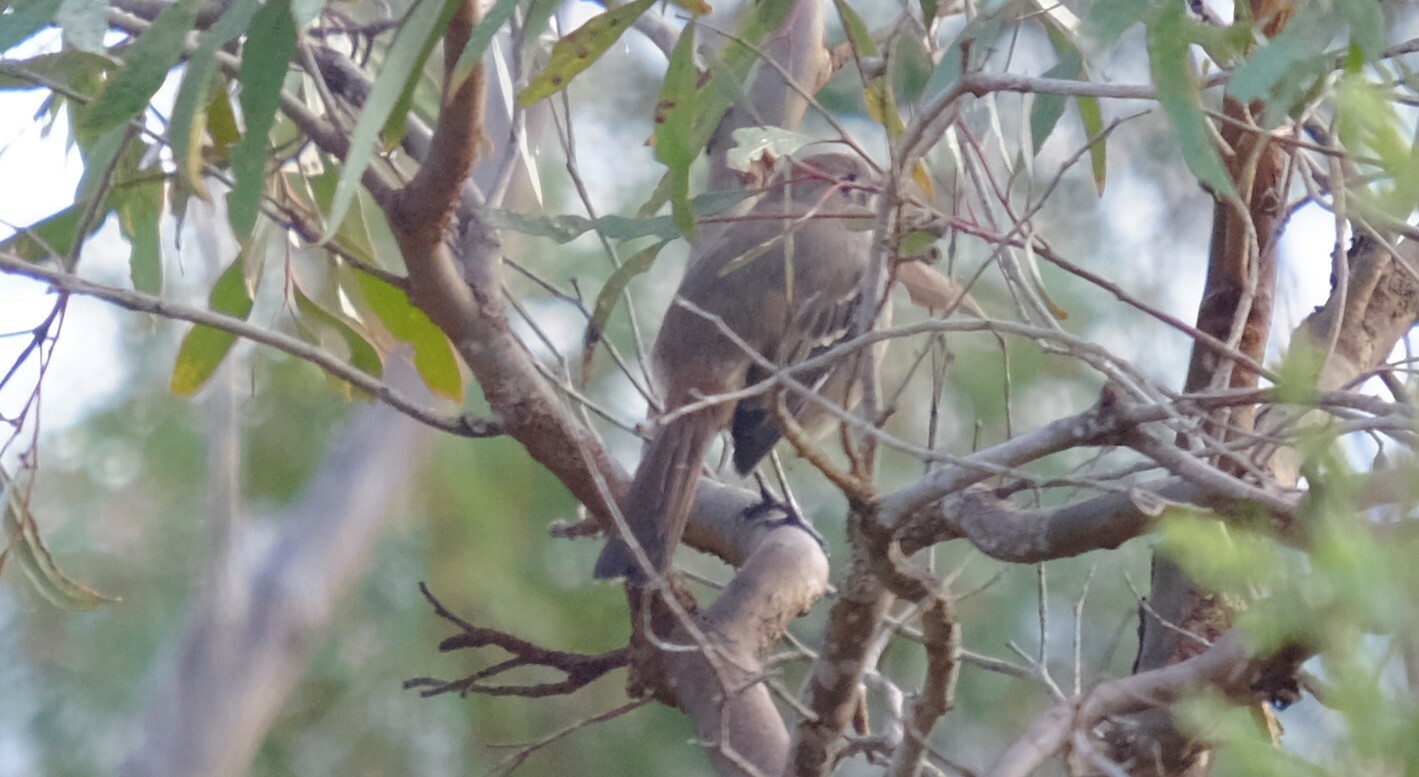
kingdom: Animalia
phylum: Chordata
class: Aves
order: Passeriformes
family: Petroicidae
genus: Drymodes
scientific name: Drymodes brunneopygia
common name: Southern scrub robin
